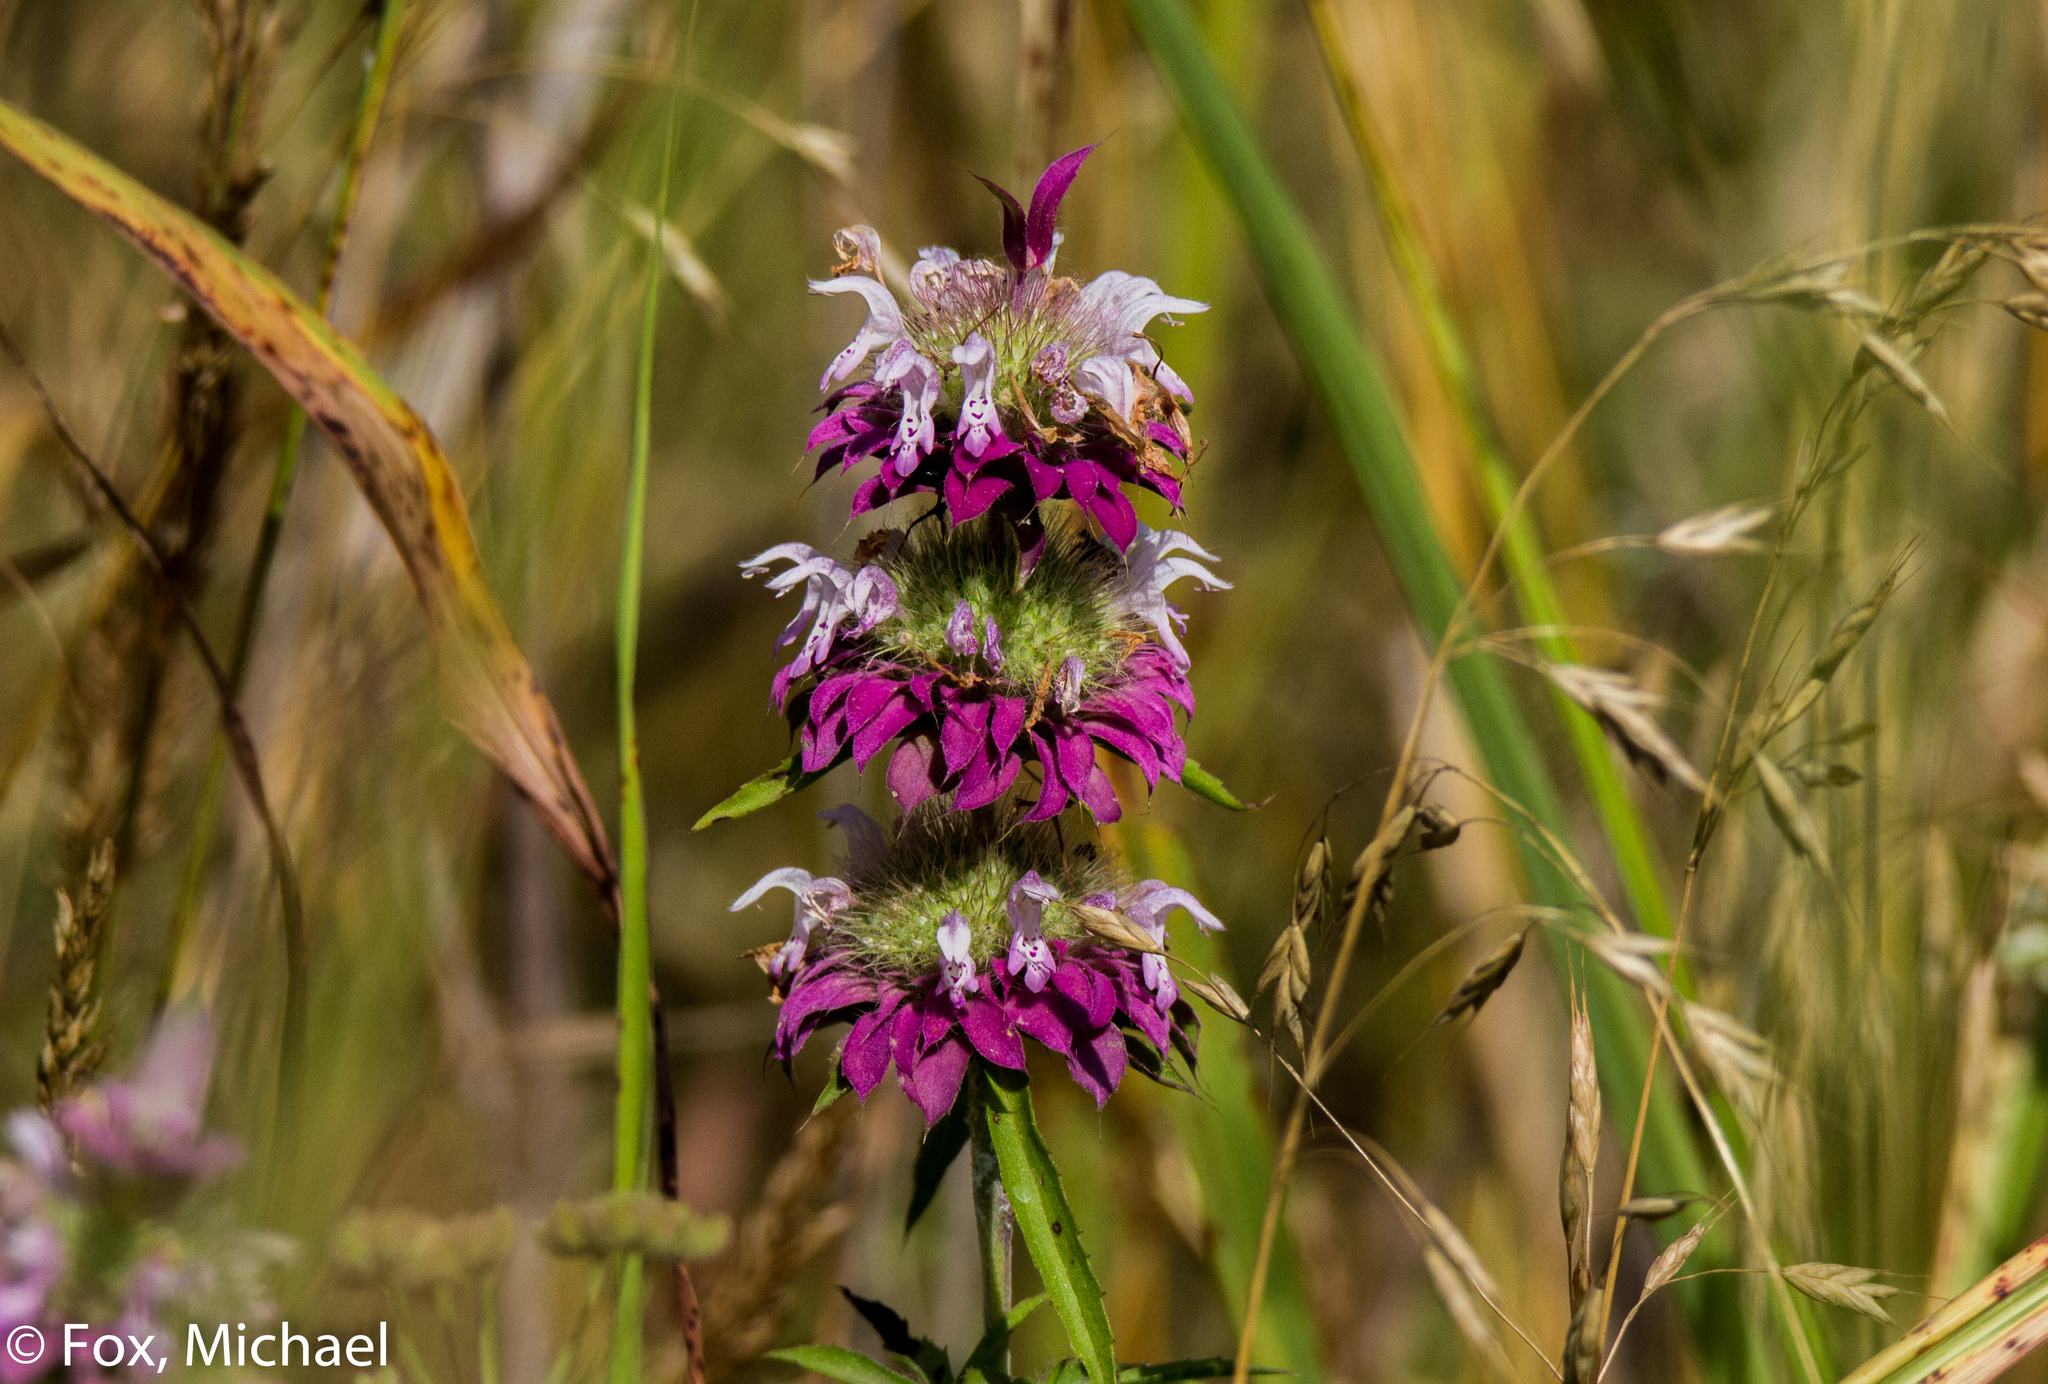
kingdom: Plantae
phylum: Tracheophyta
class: Magnoliopsida
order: Lamiales
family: Lamiaceae
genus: Monarda
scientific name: Monarda citriodora
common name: Lemon beebalm
